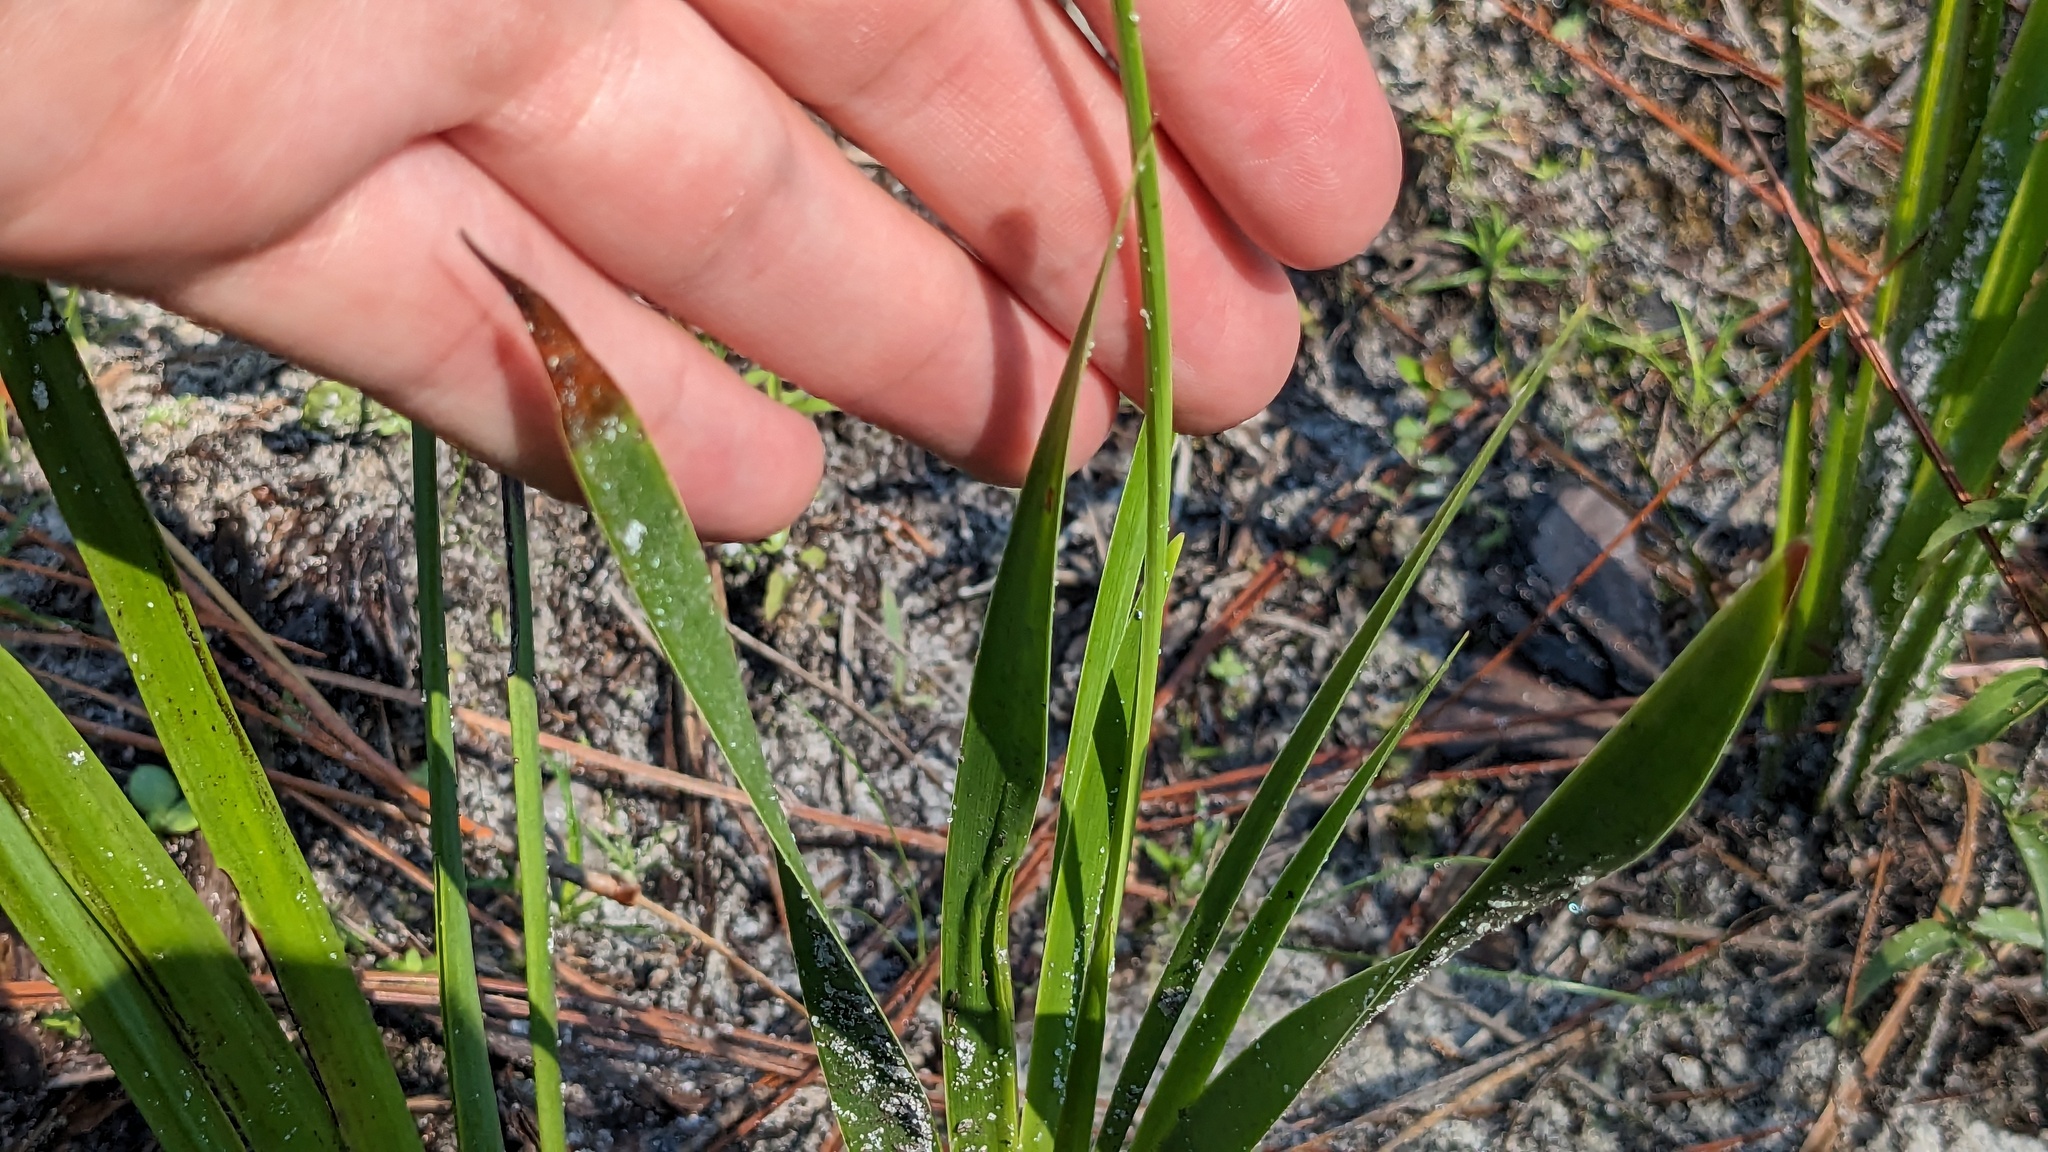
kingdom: Plantae
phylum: Tracheophyta
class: Liliopsida
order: Poales
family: Xyridaceae
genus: Xyris
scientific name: Xyris ambigua
